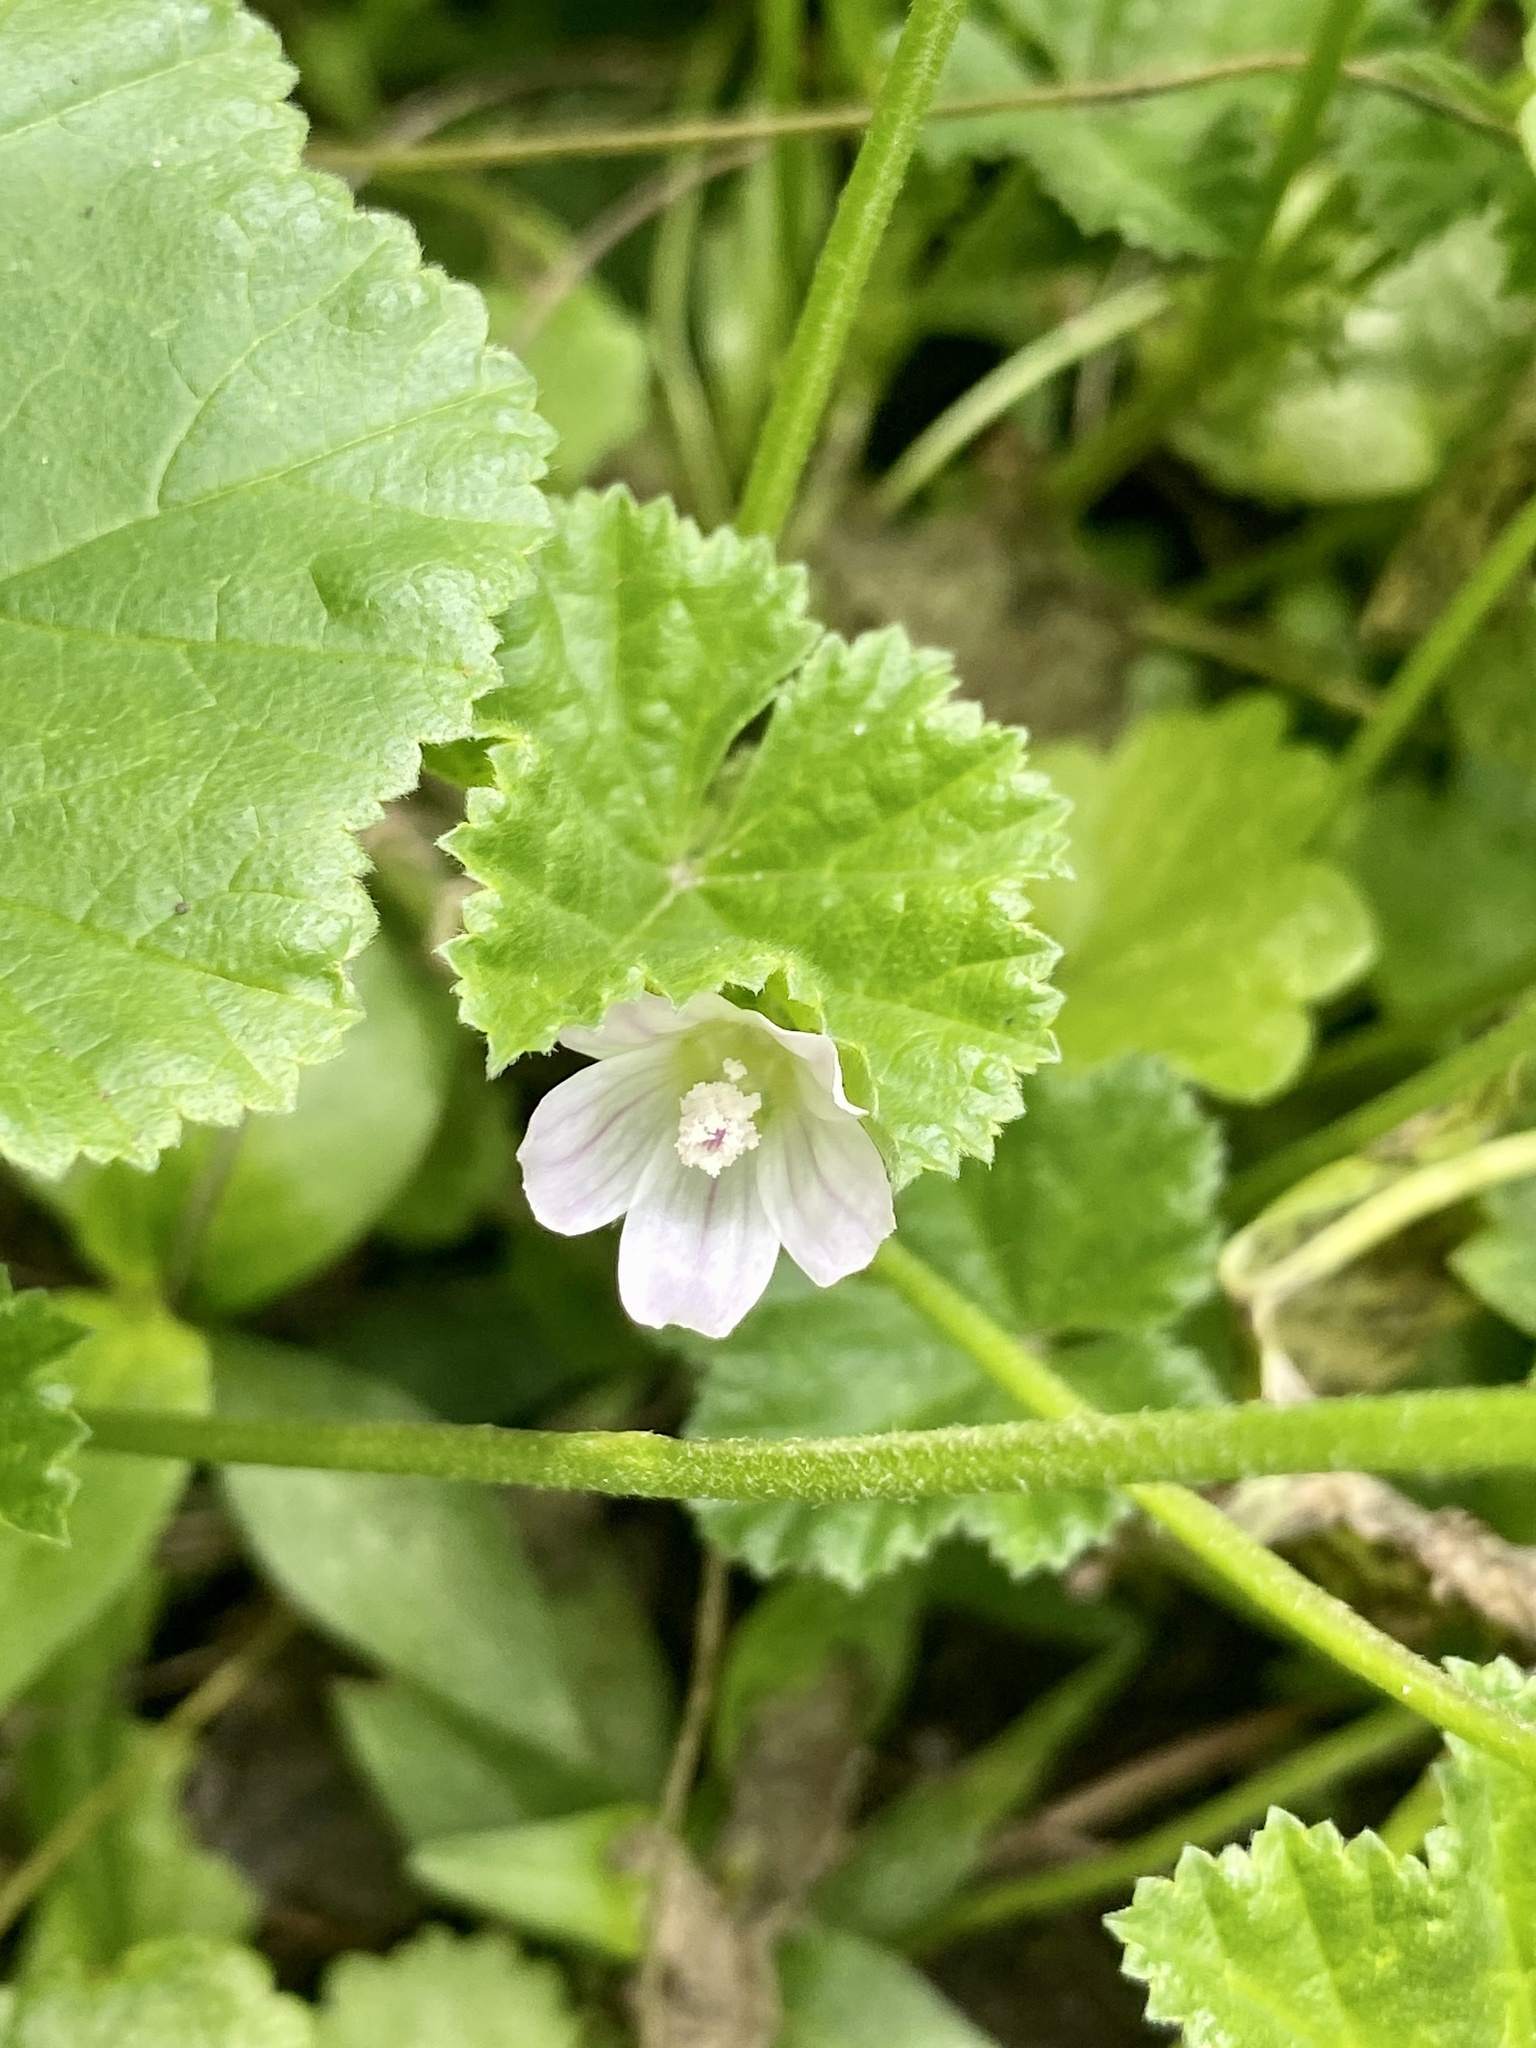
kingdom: Plantae
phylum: Tracheophyta
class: Magnoliopsida
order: Malvales
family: Malvaceae
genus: Malva
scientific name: Malva neglecta
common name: Common mallow
